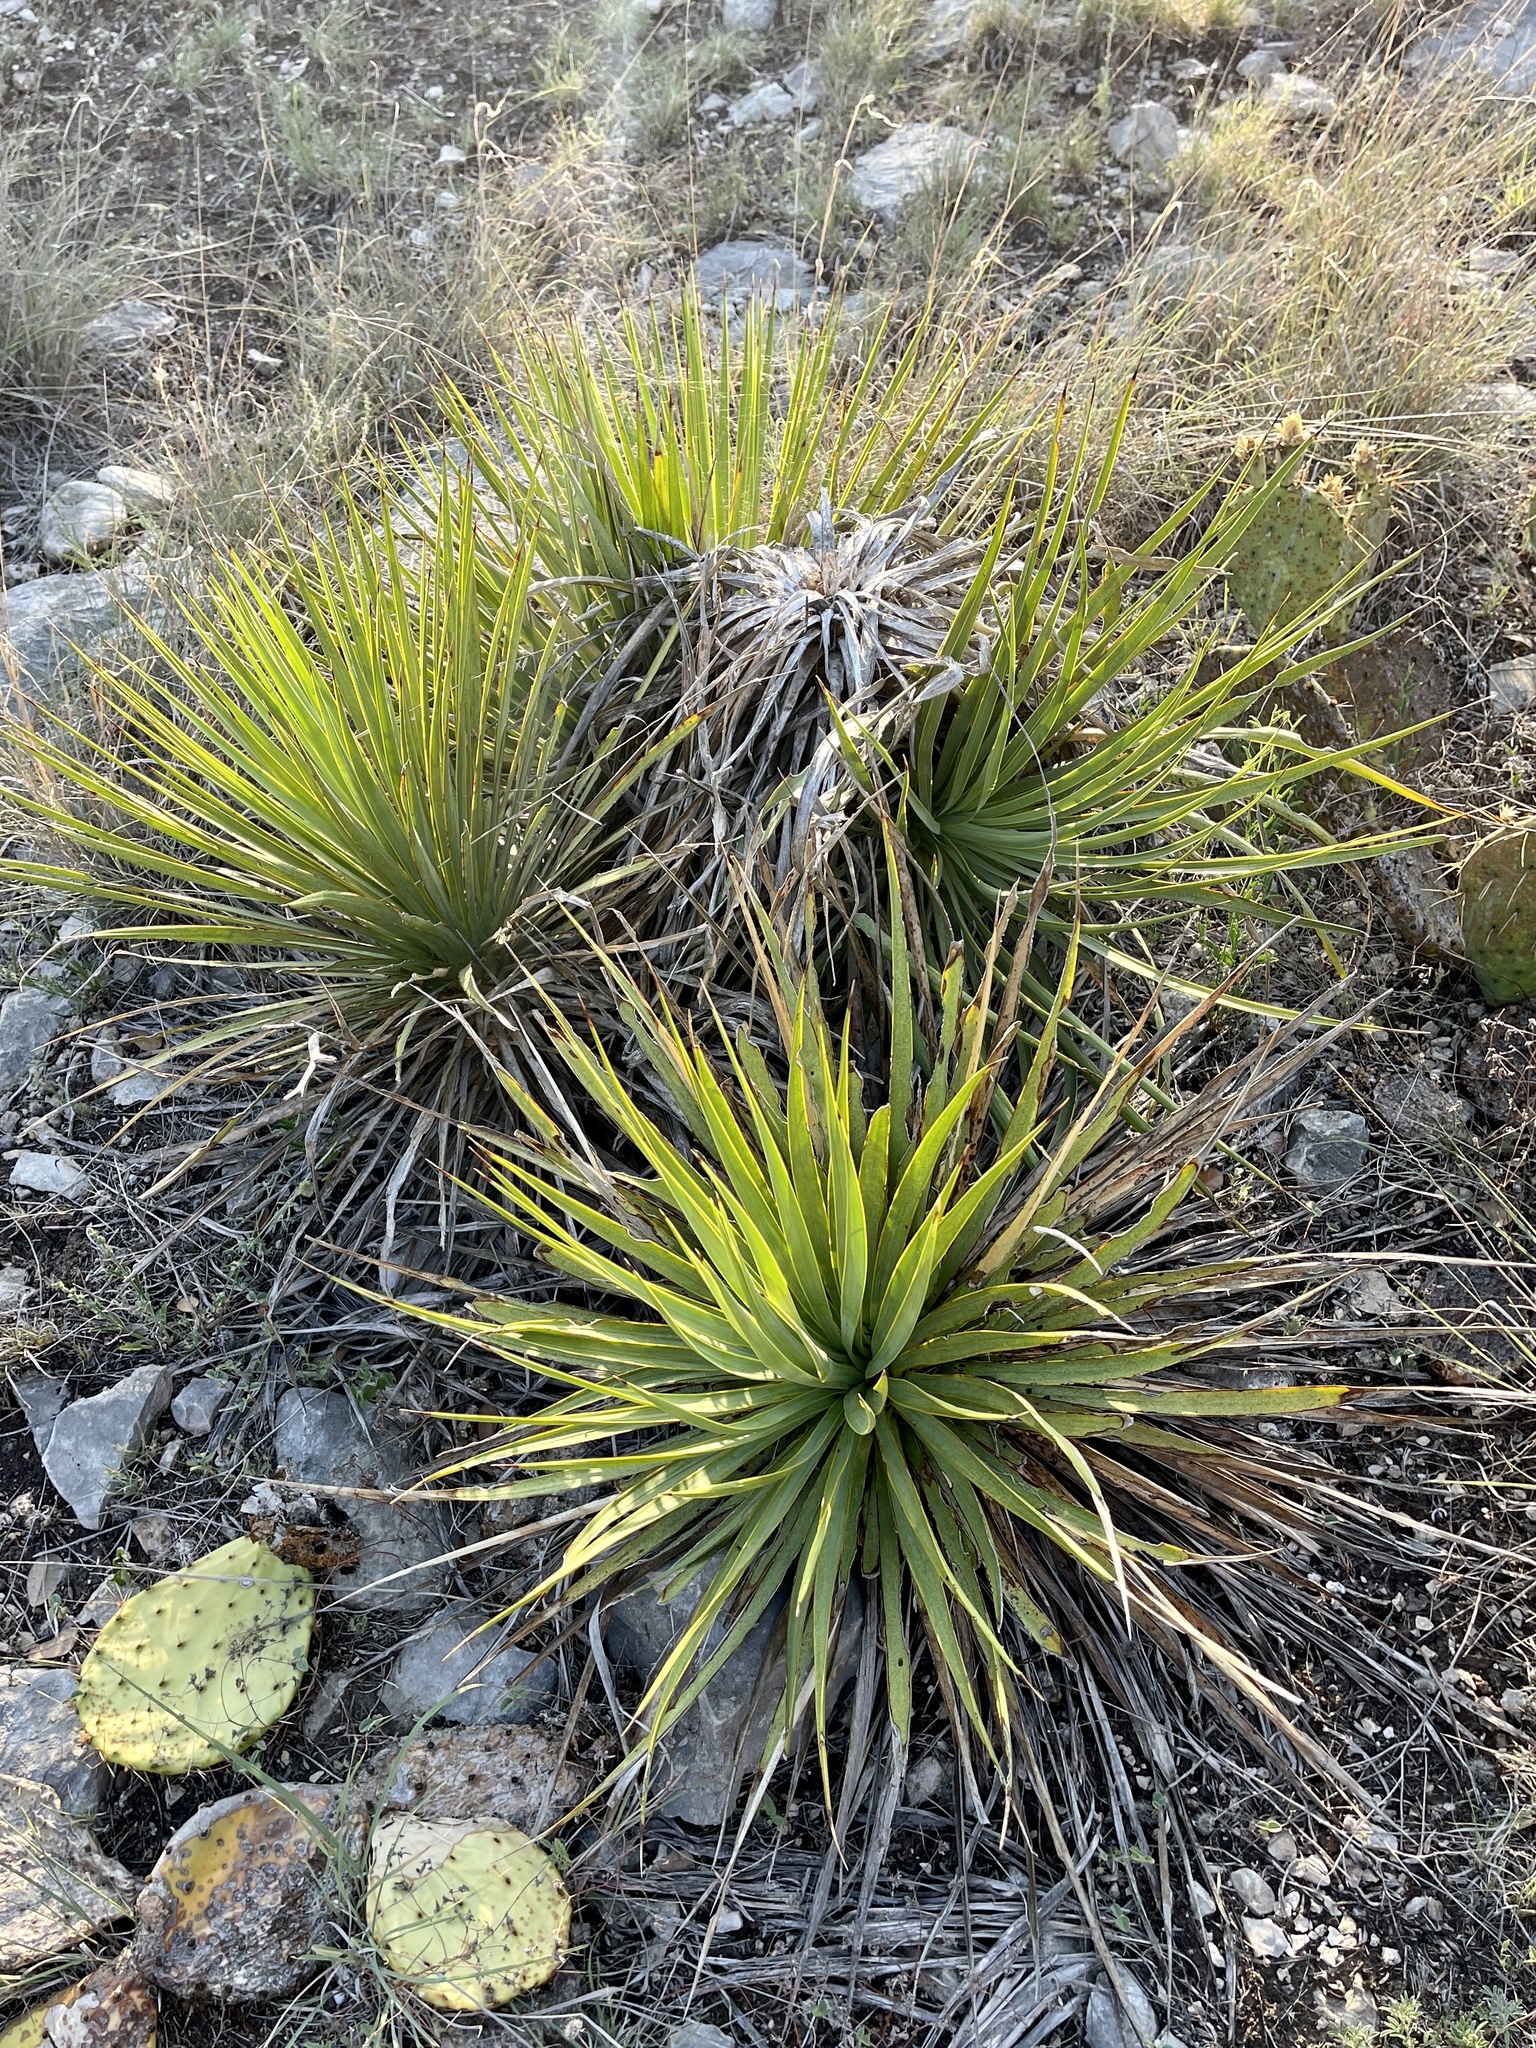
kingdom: Plantae
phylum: Tracheophyta
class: Liliopsida
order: Asparagales
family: Asparagaceae
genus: Yucca
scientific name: Yucca reverchonii
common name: San angelo yucca
